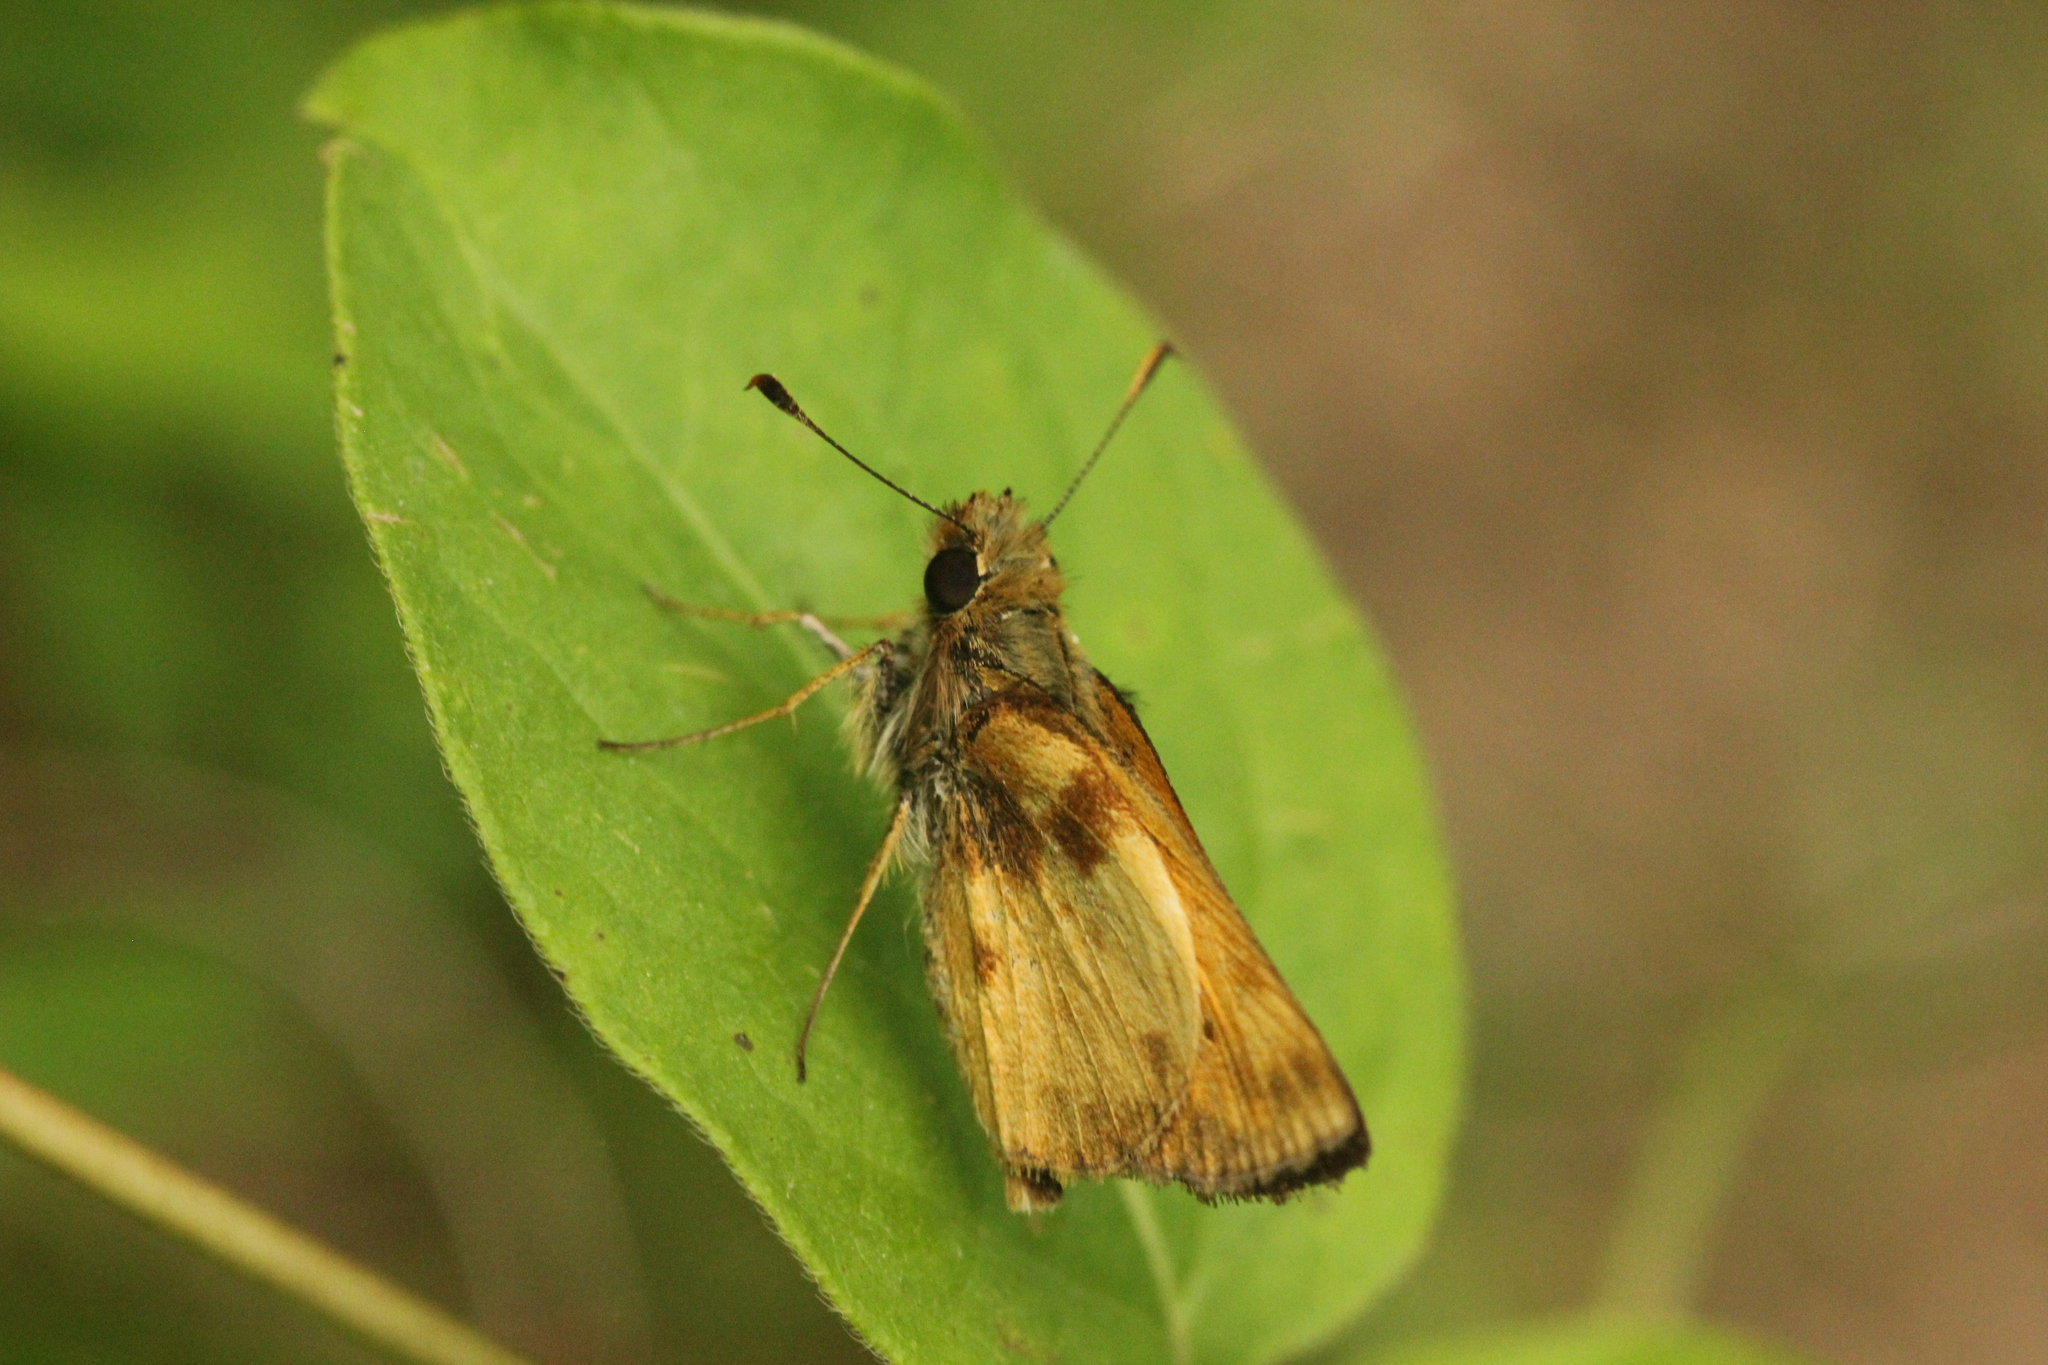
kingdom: Animalia
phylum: Arthropoda
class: Insecta
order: Lepidoptera
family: Hesperiidae
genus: Lon
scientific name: Lon zabulon
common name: Zabulon skipper
